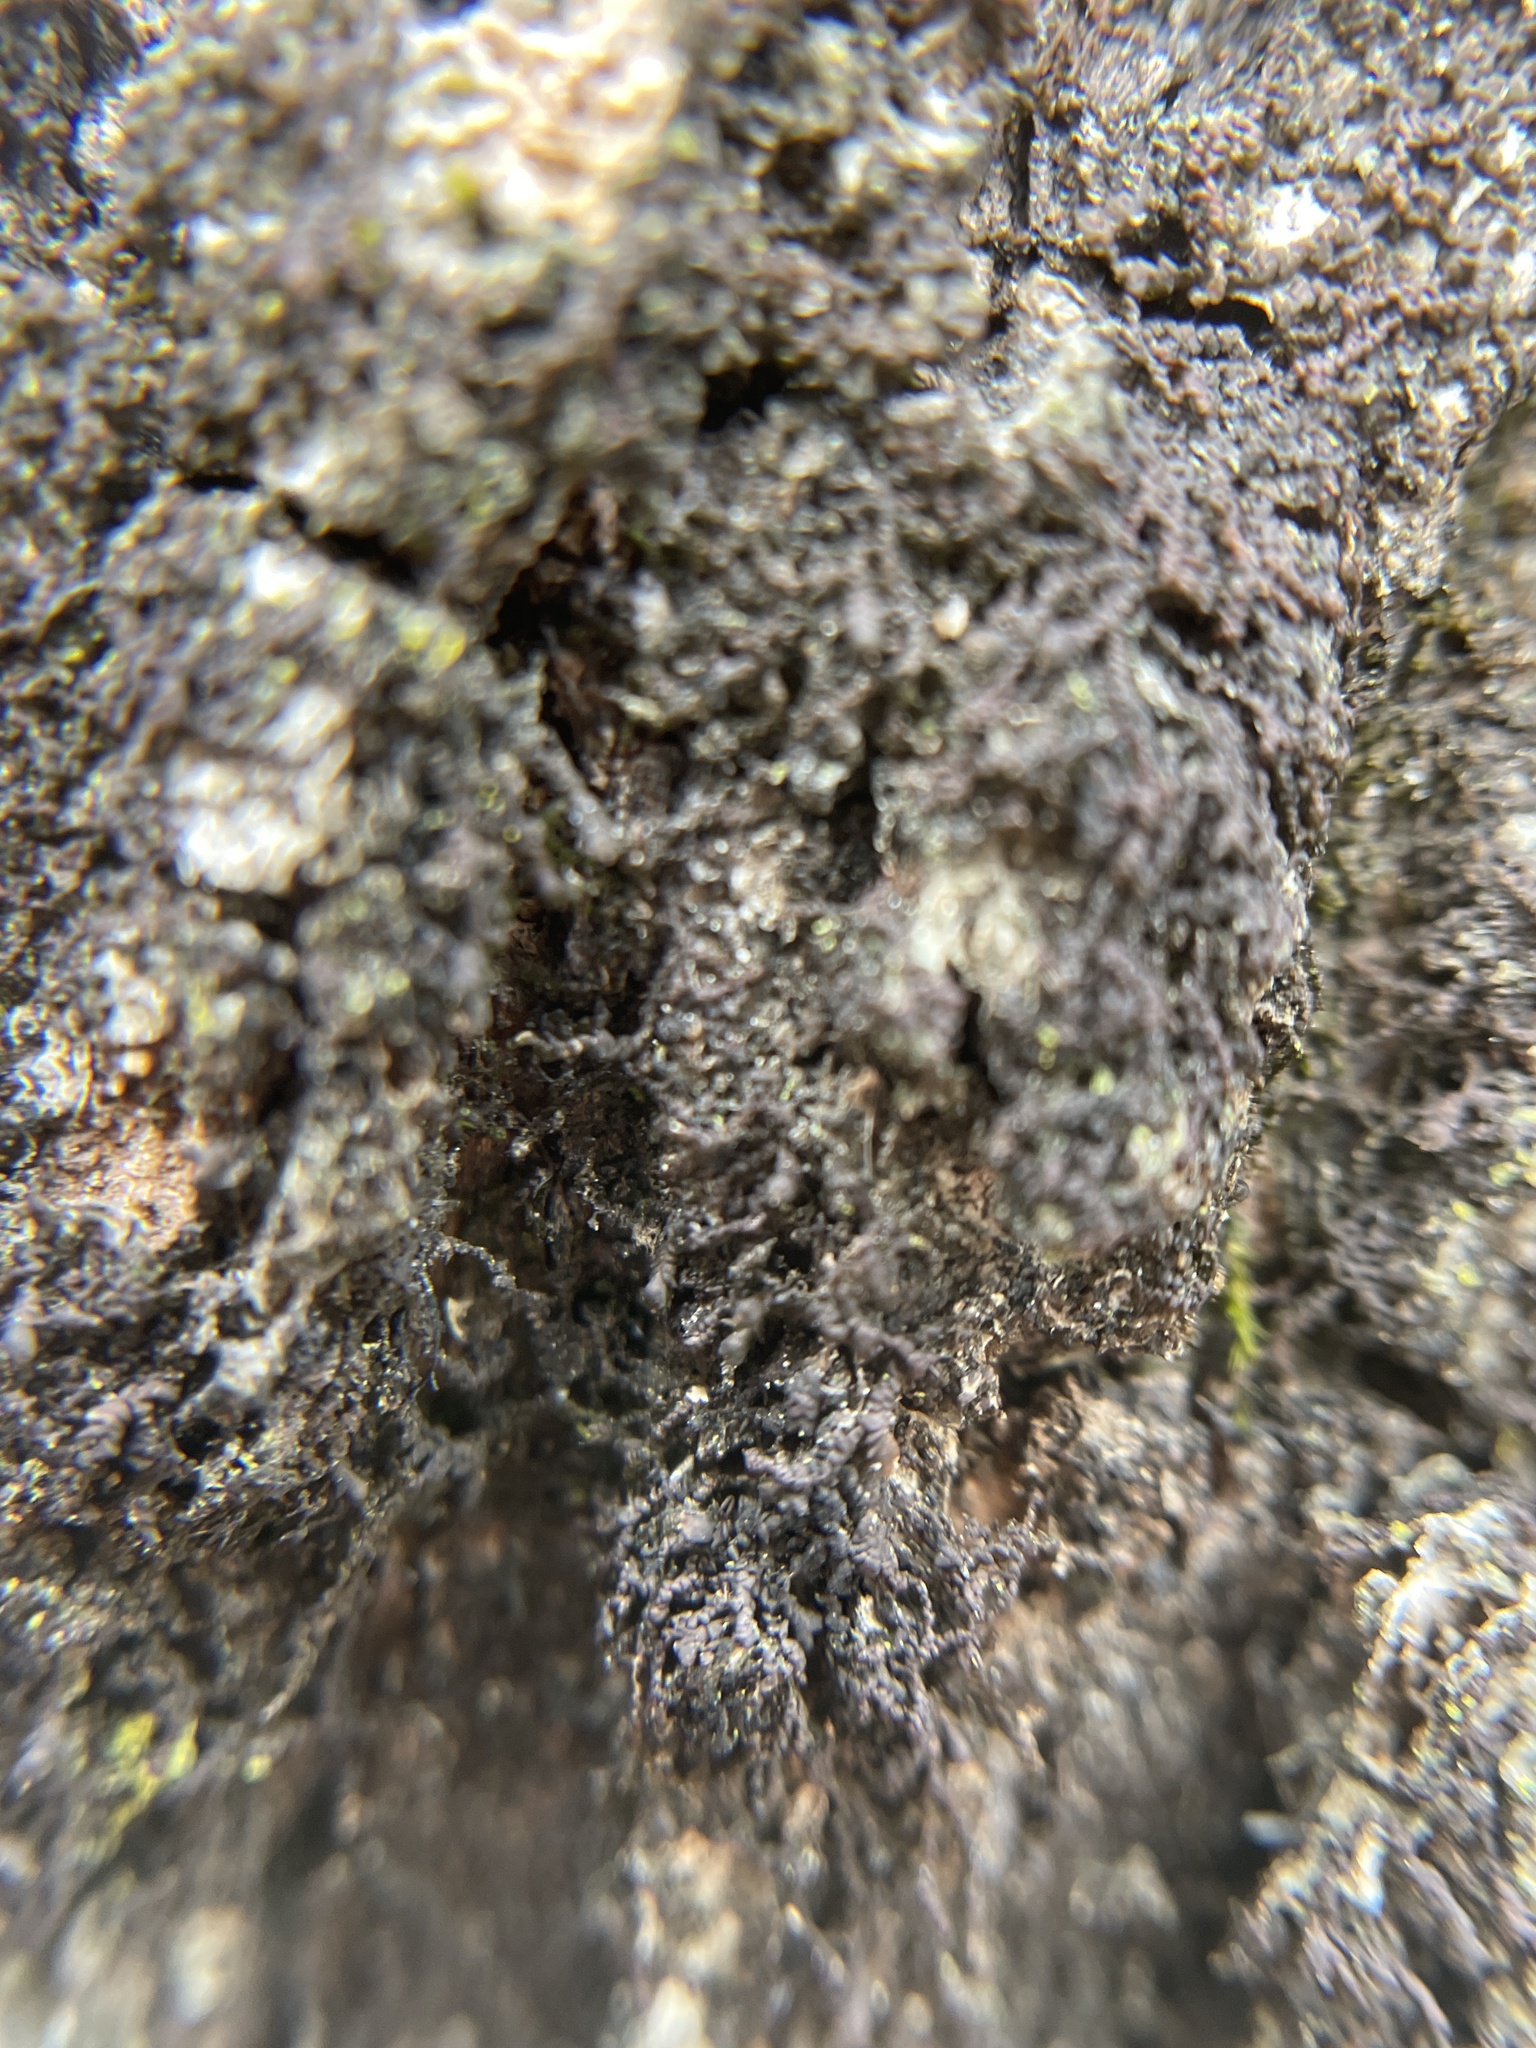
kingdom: Plantae
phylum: Marchantiophyta
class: Jungermanniopsida
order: Porellales
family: Frullaniaceae
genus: Frullania
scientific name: Frullania eboracensis
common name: New york scalewort
